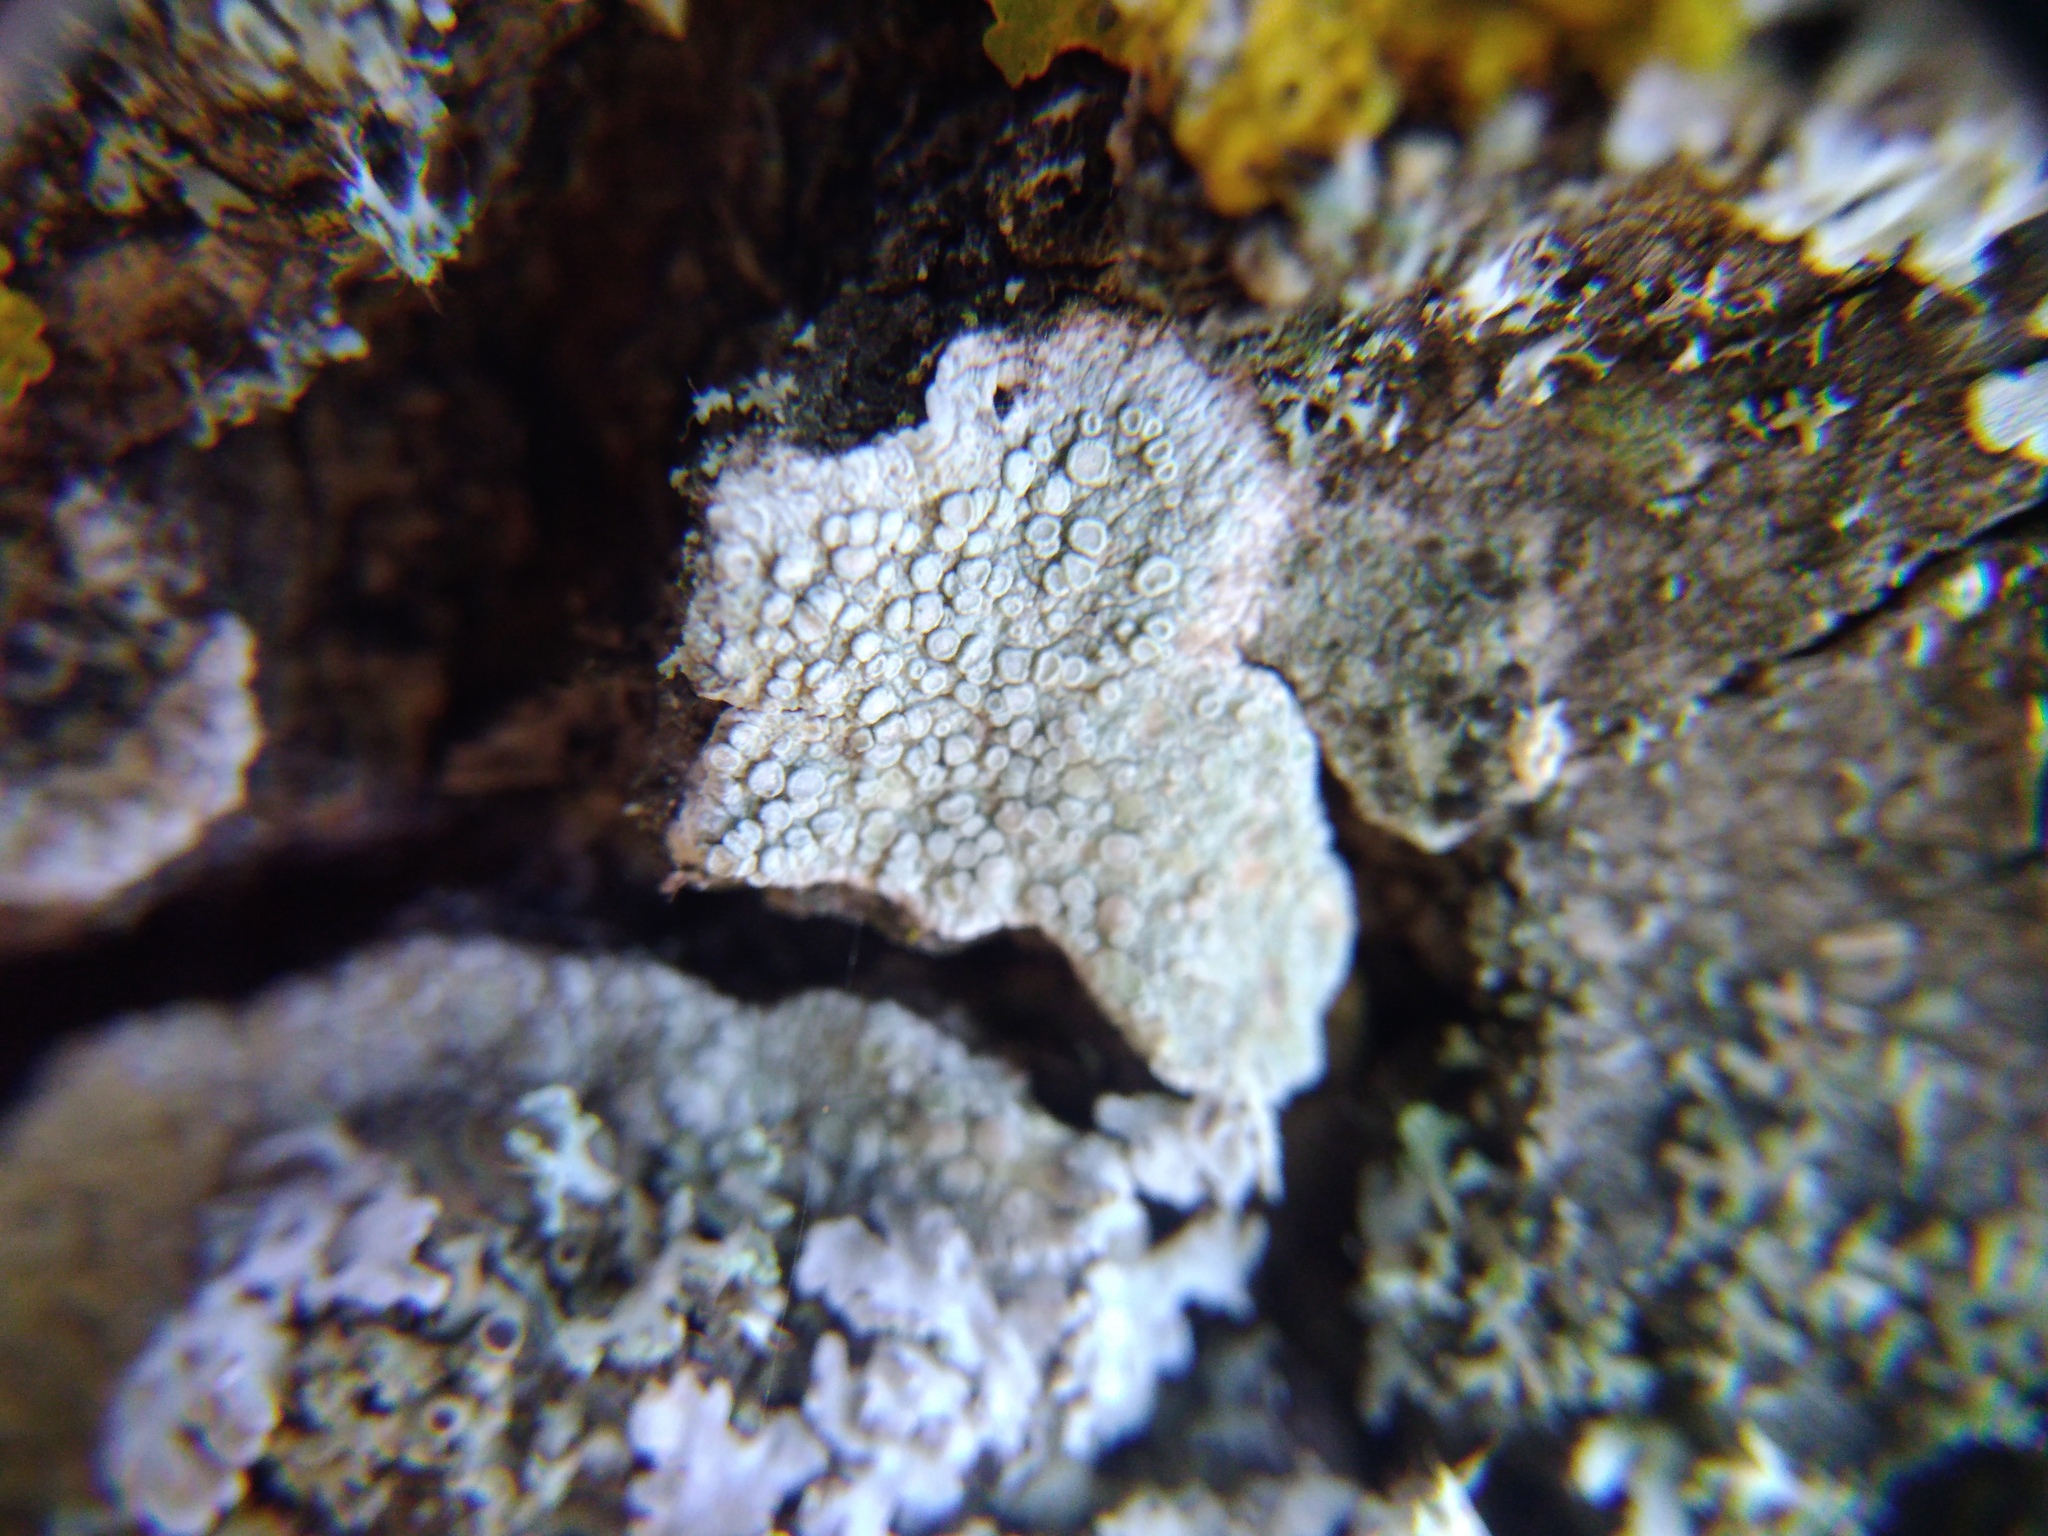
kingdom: Fungi
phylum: Ascomycota
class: Lecanoromycetes
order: Lecanorales
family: Lecanoraceae
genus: Glaucomaria
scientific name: Glaucomaria carpinea
